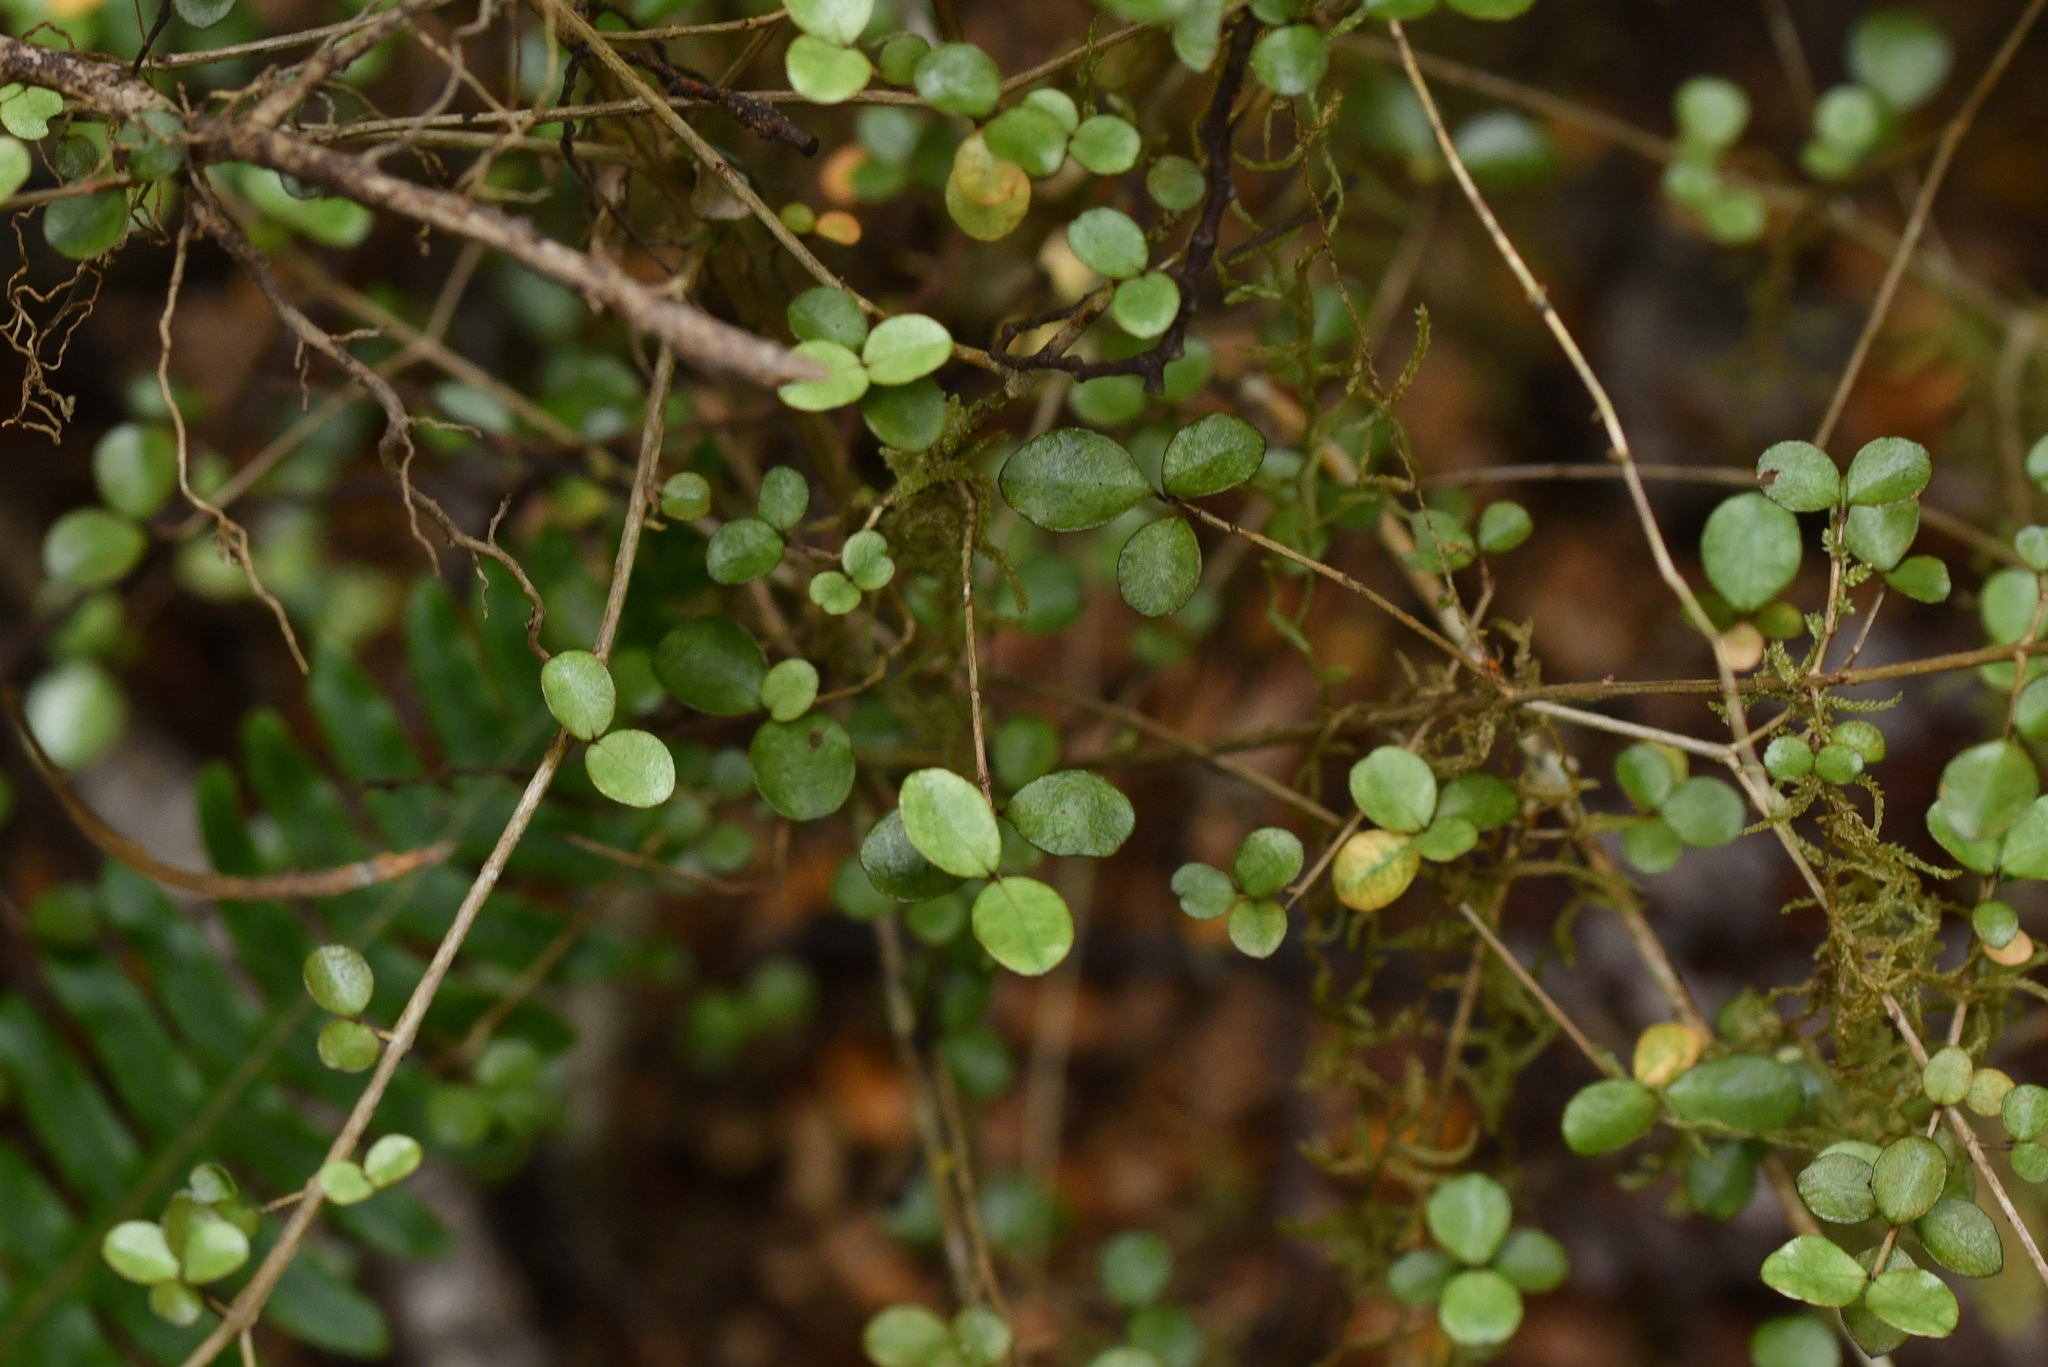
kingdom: Plantae
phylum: Tracheophyta
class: Magnoliopsida
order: Myrtales
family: Myrtaceae
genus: Neomyrtus
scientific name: Neomyrtus pedunculata
